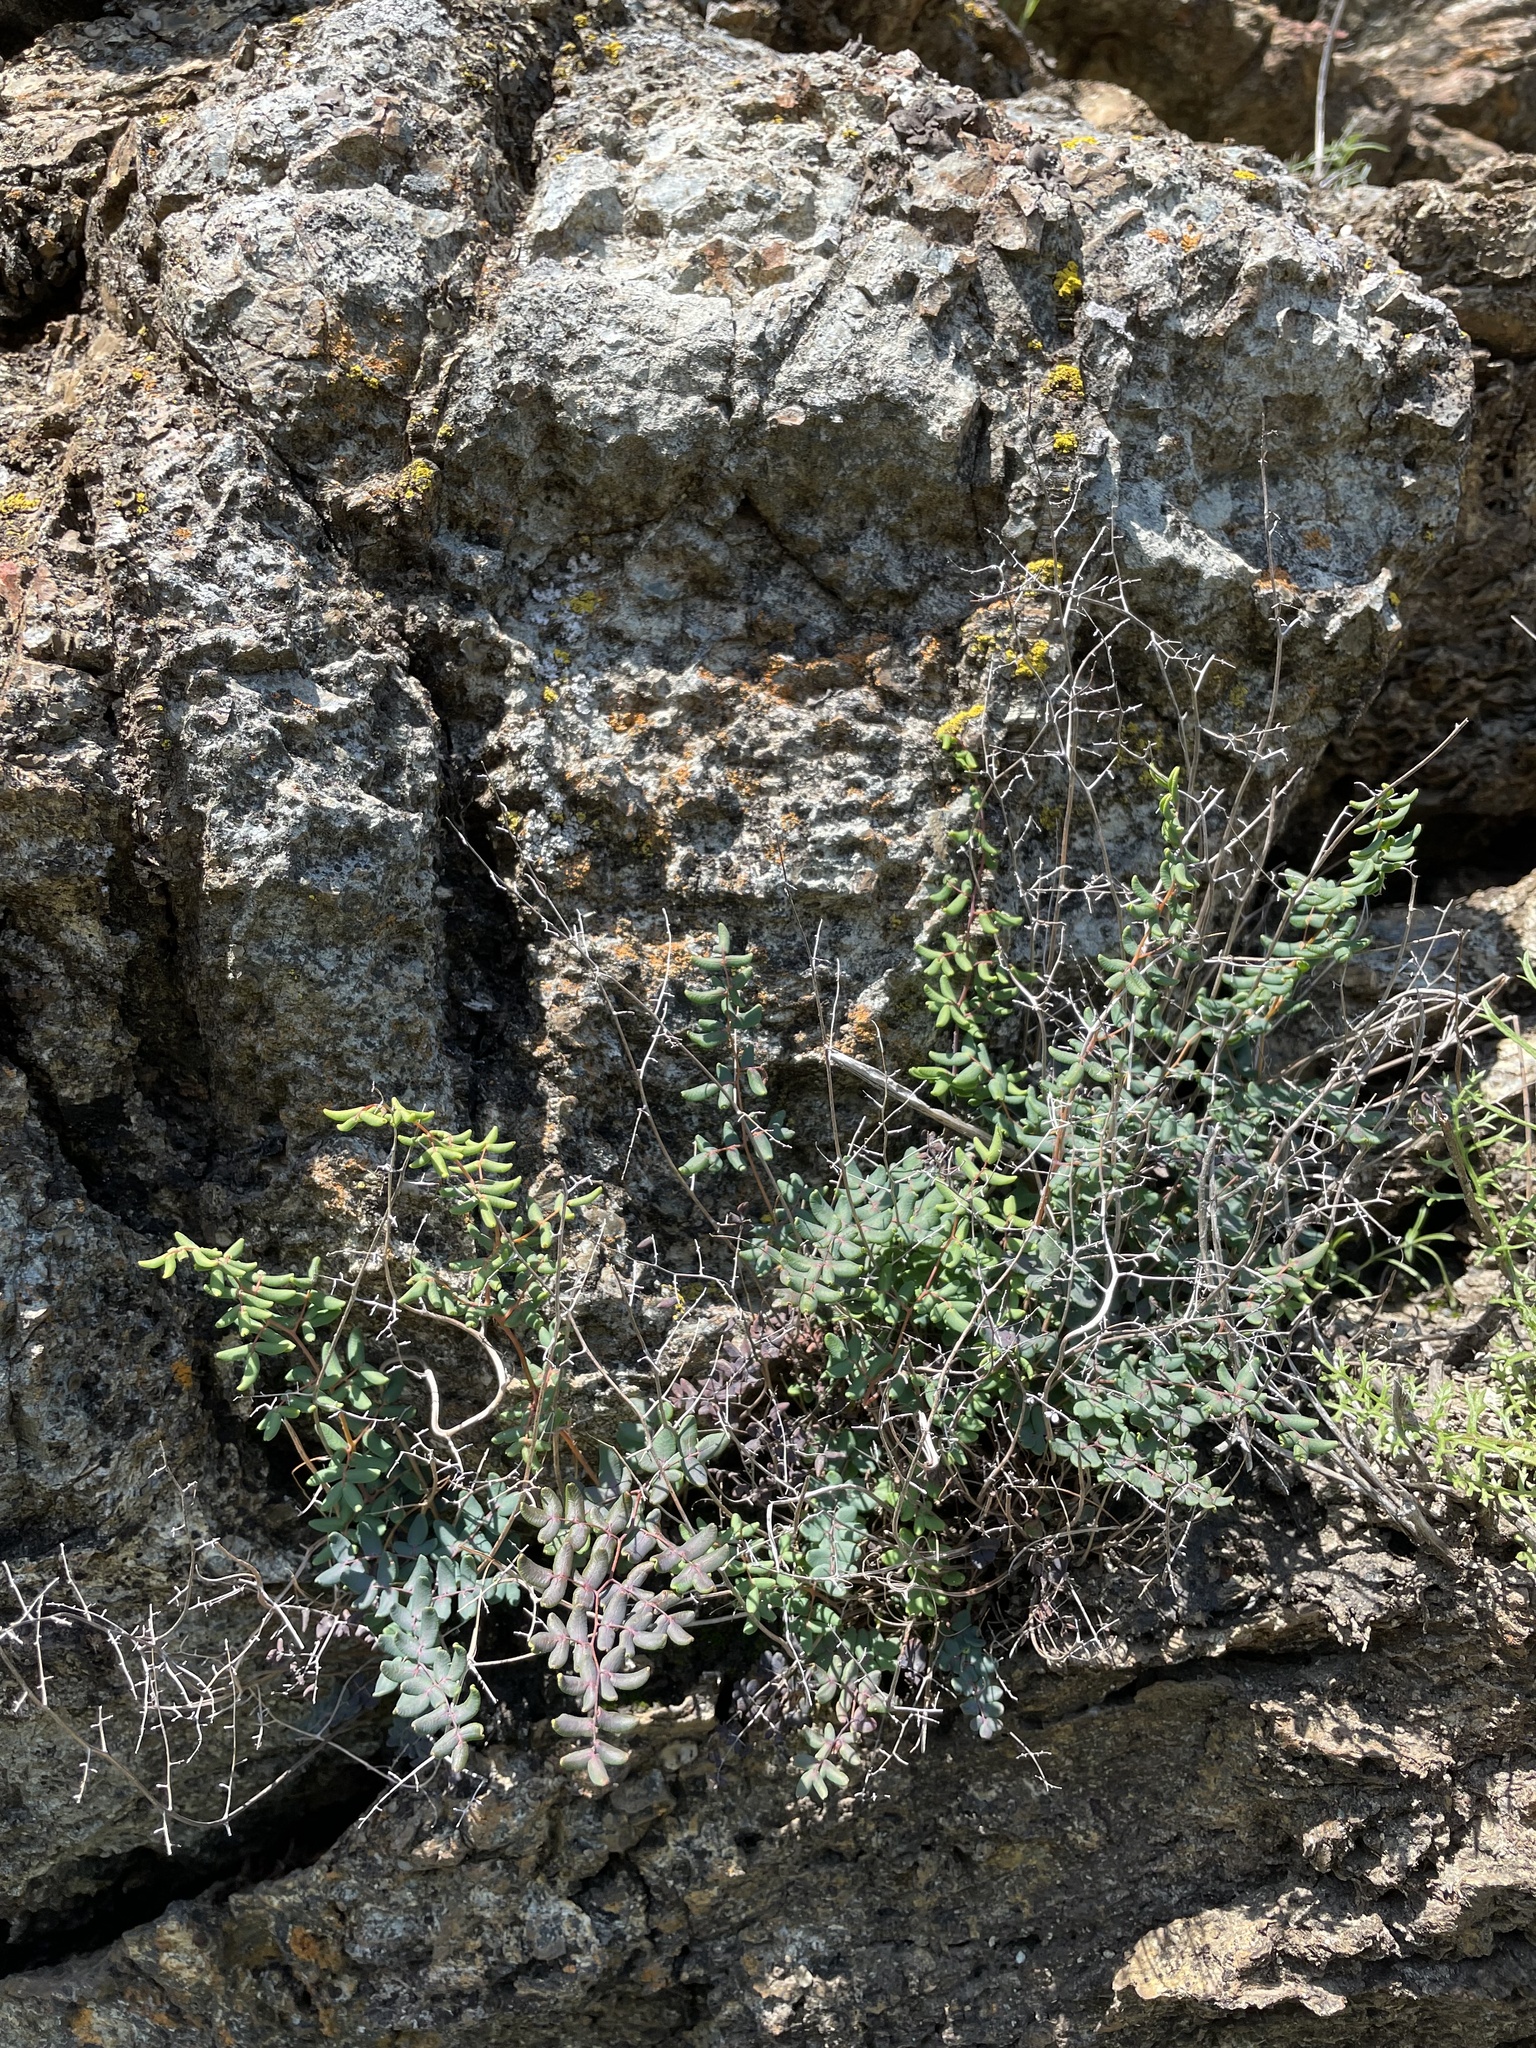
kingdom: Plantae
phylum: Tracheophyta
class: Polypodiopsida
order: Polypodiales
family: Pteridaceae
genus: Pellaea
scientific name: Pellaea andromedifolia
